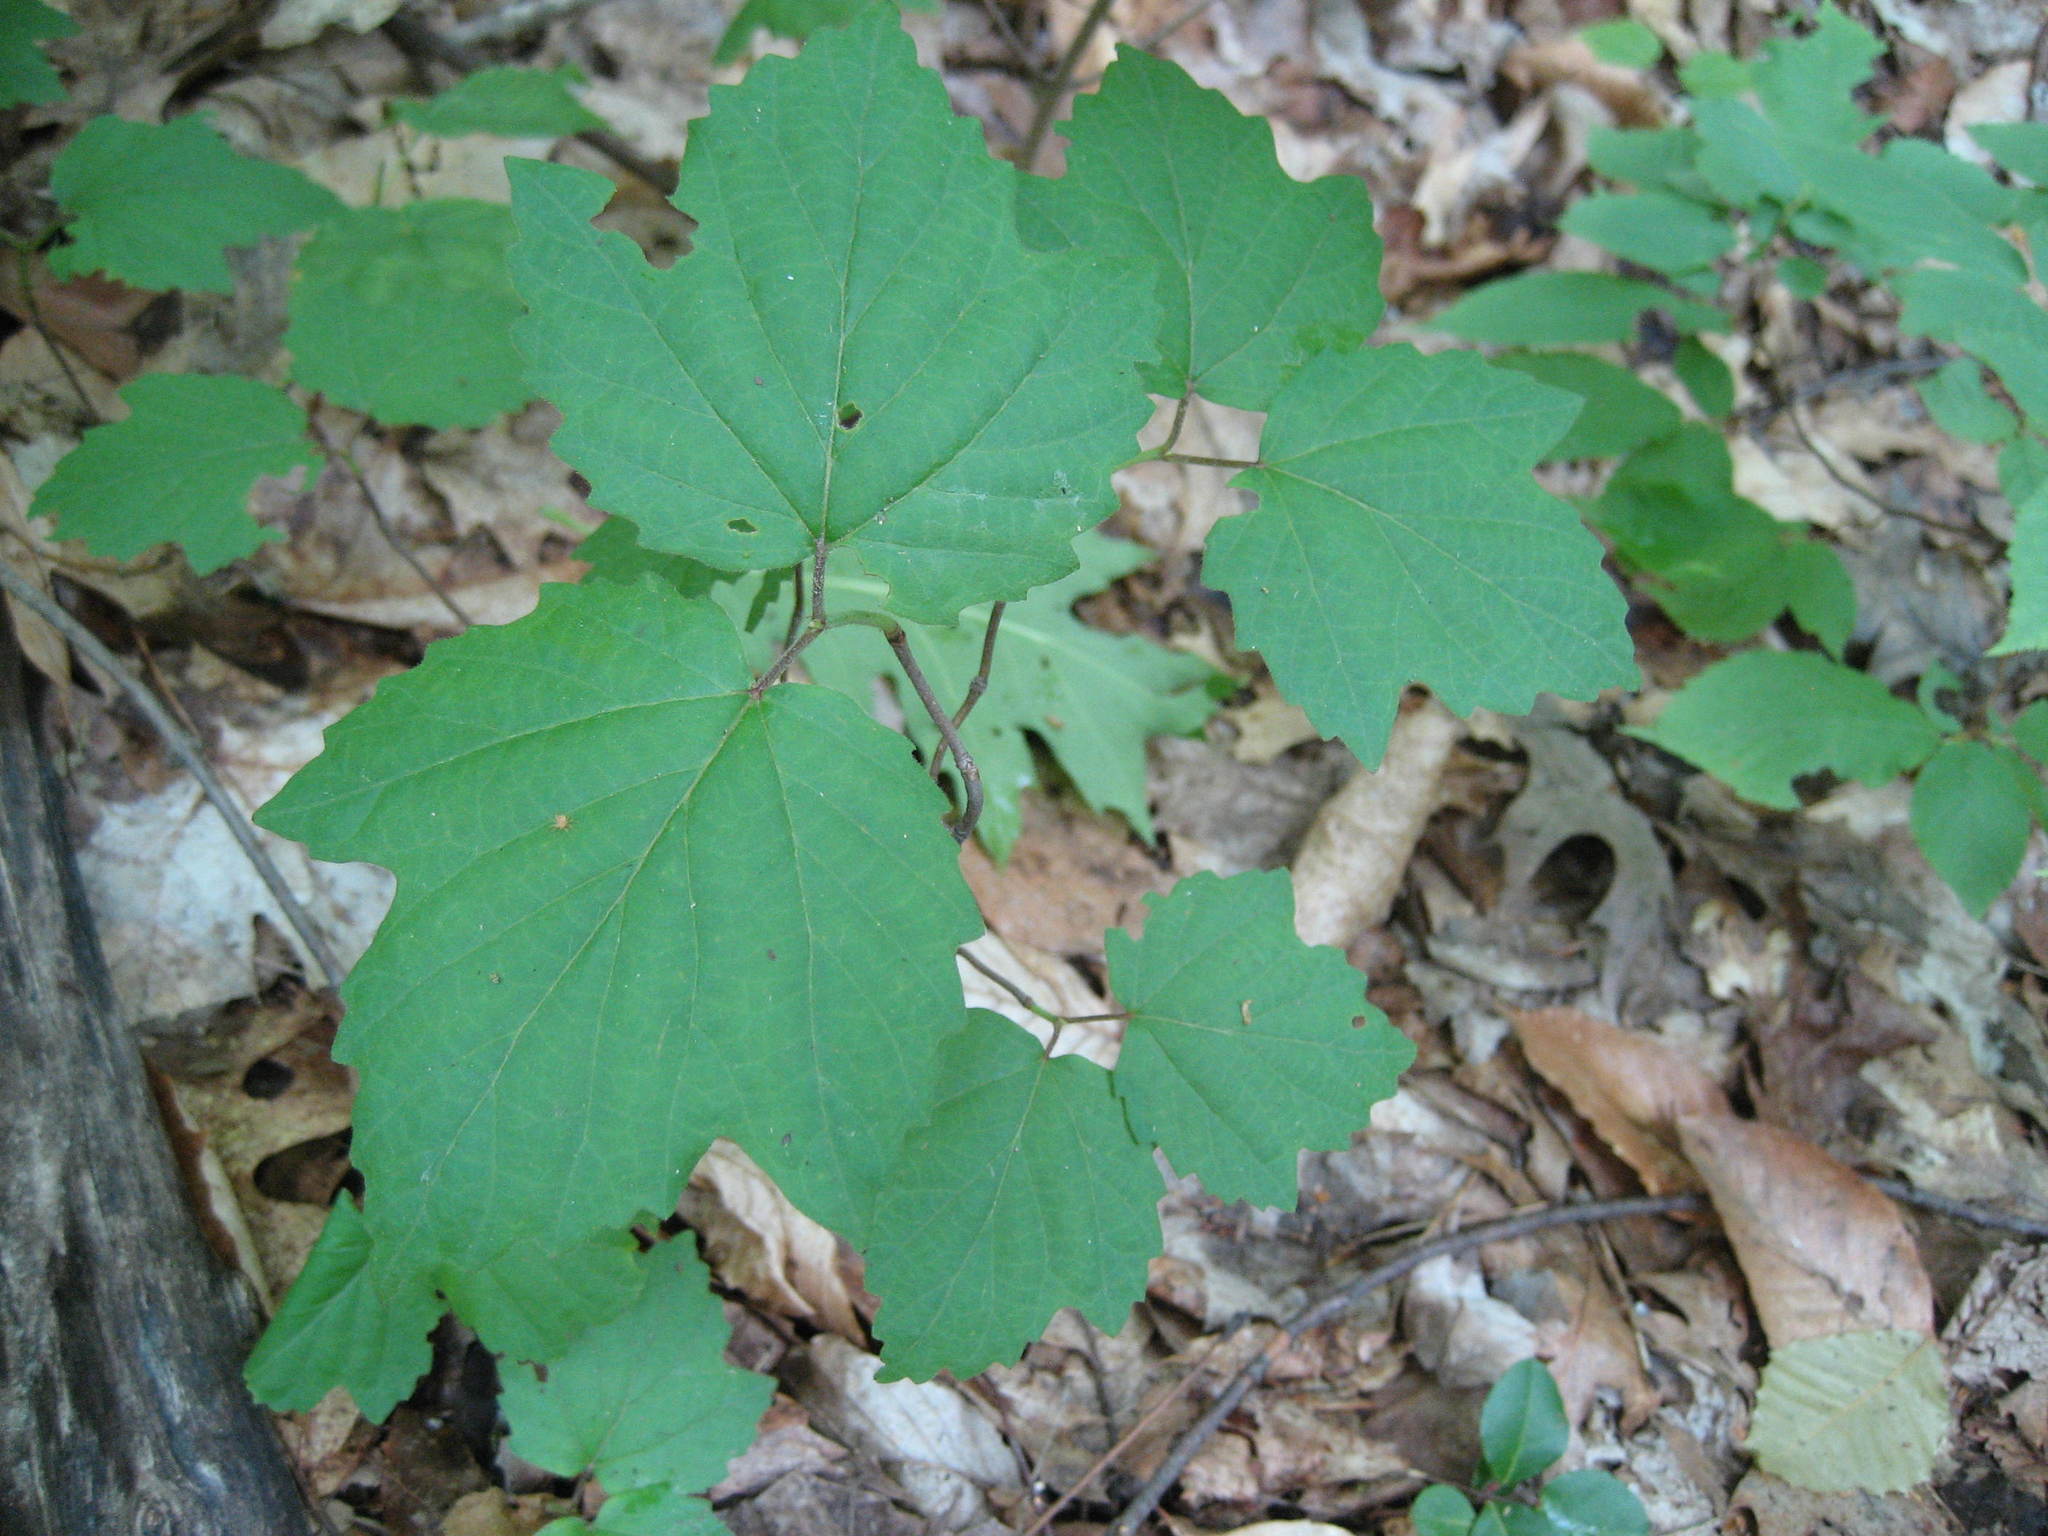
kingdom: Plantae
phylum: Tracheophyta
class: Magnoliopsida
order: Dipsacales
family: Viburnaceae
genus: Viburnum
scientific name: Viburnum acerifolium
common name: Dockmackie
